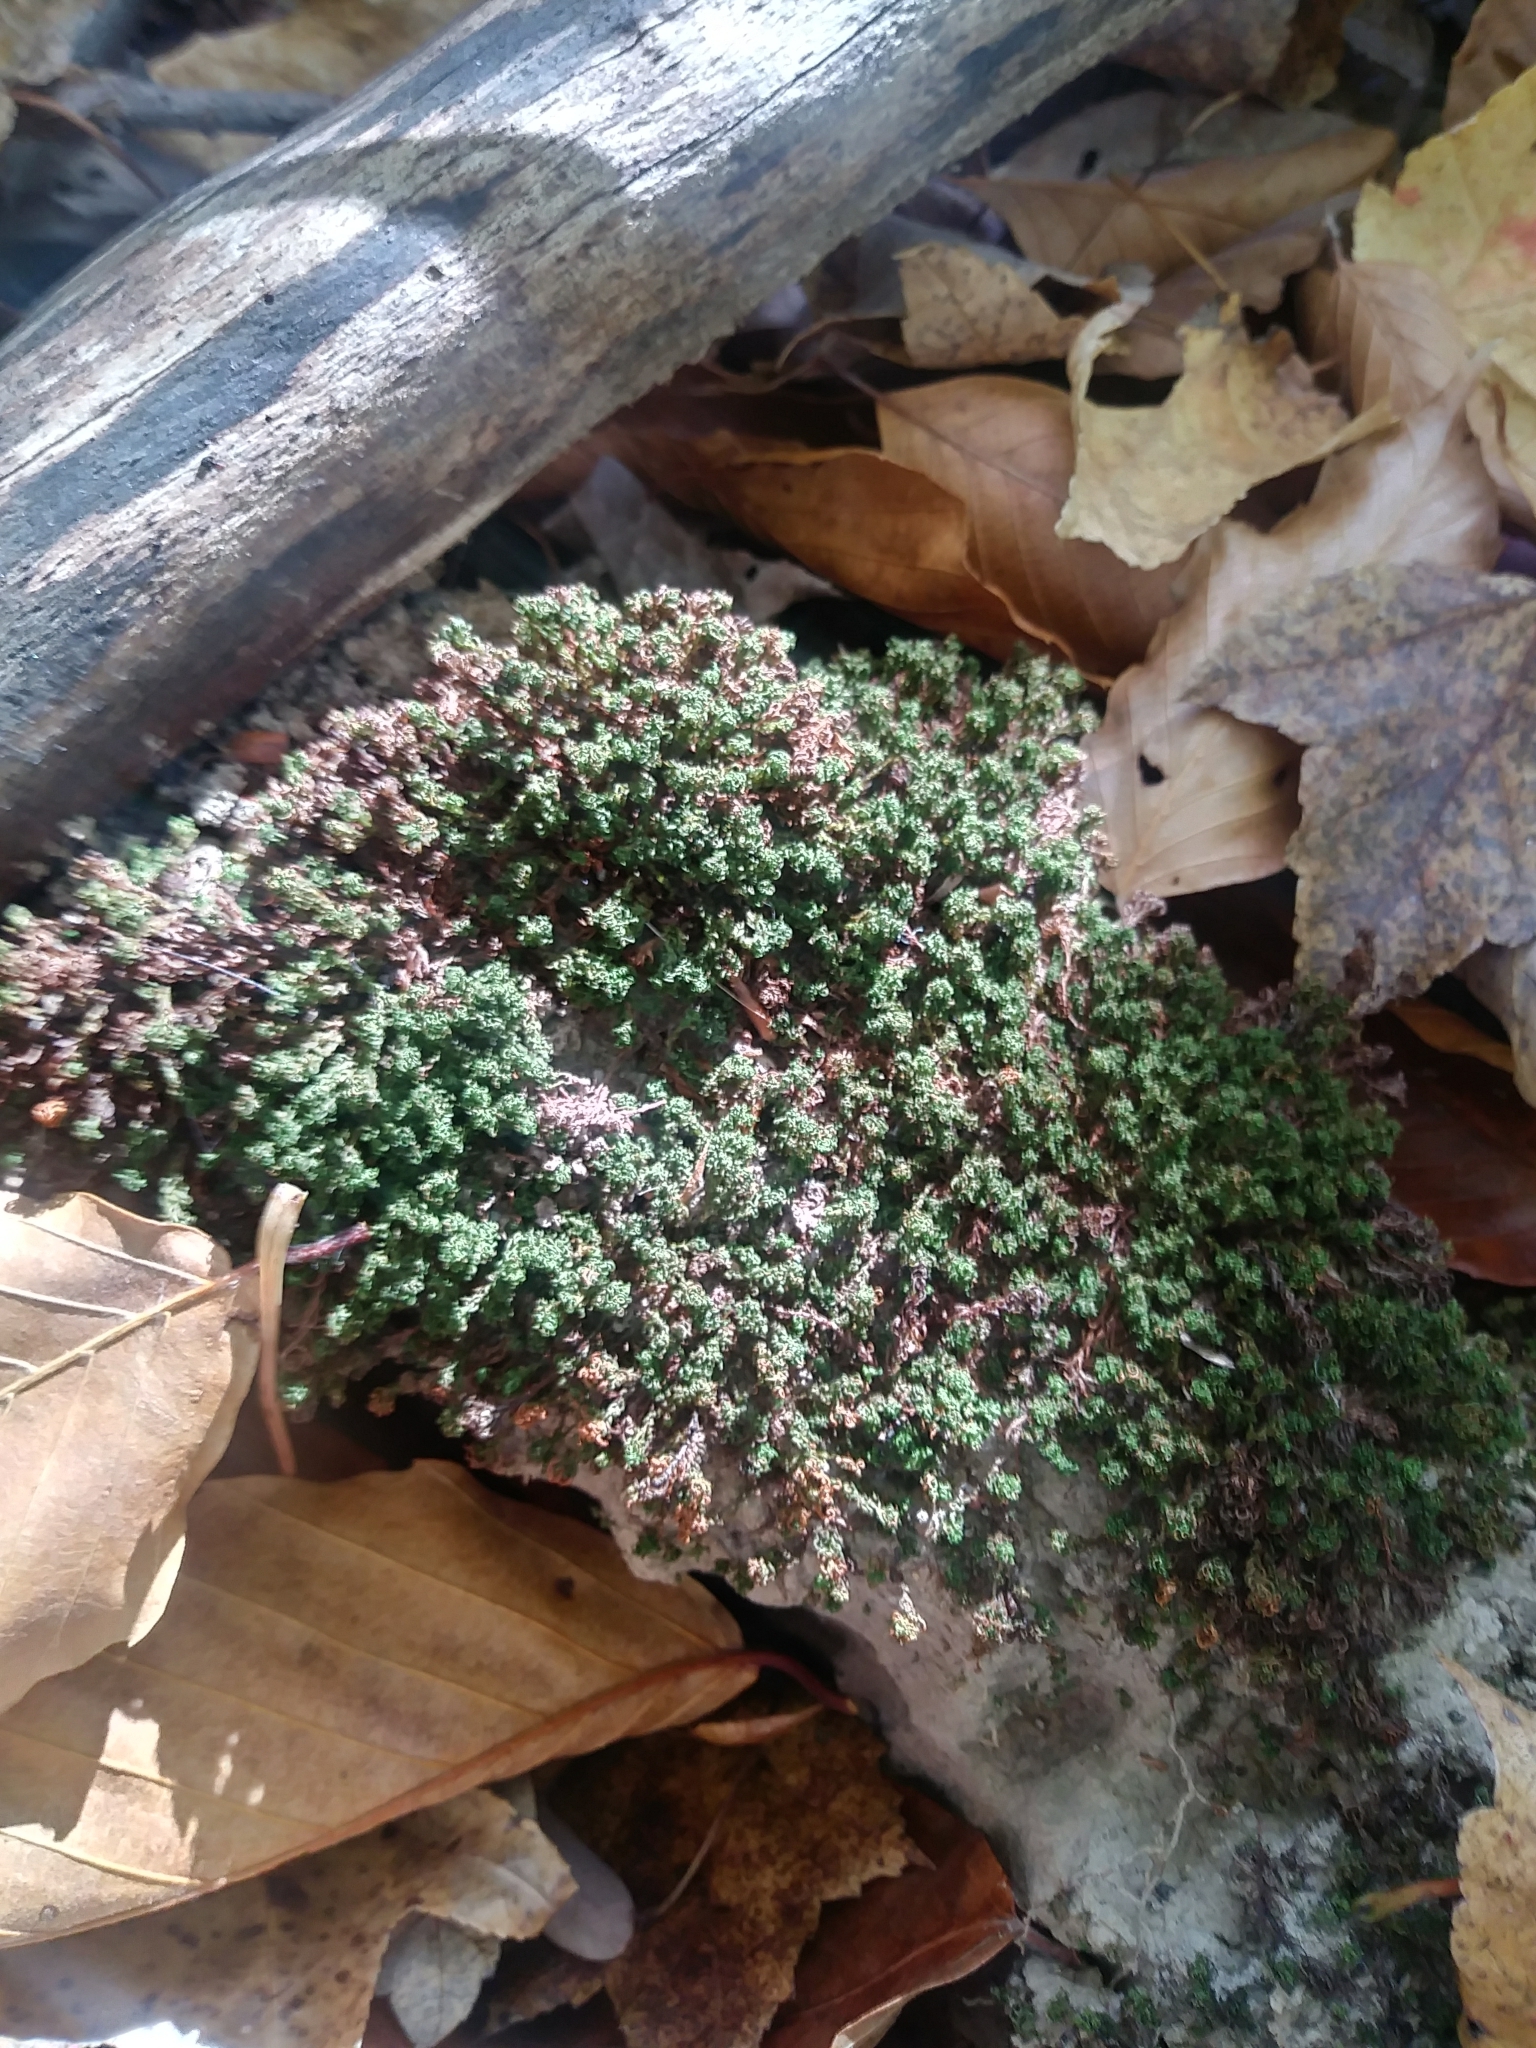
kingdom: Plantae
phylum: Bryophyta
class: Polytrichopsida
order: Polytrichales
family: Polytrichaceae
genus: Atrichum
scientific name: Atrichum angustatum
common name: Lesser smoothcap
